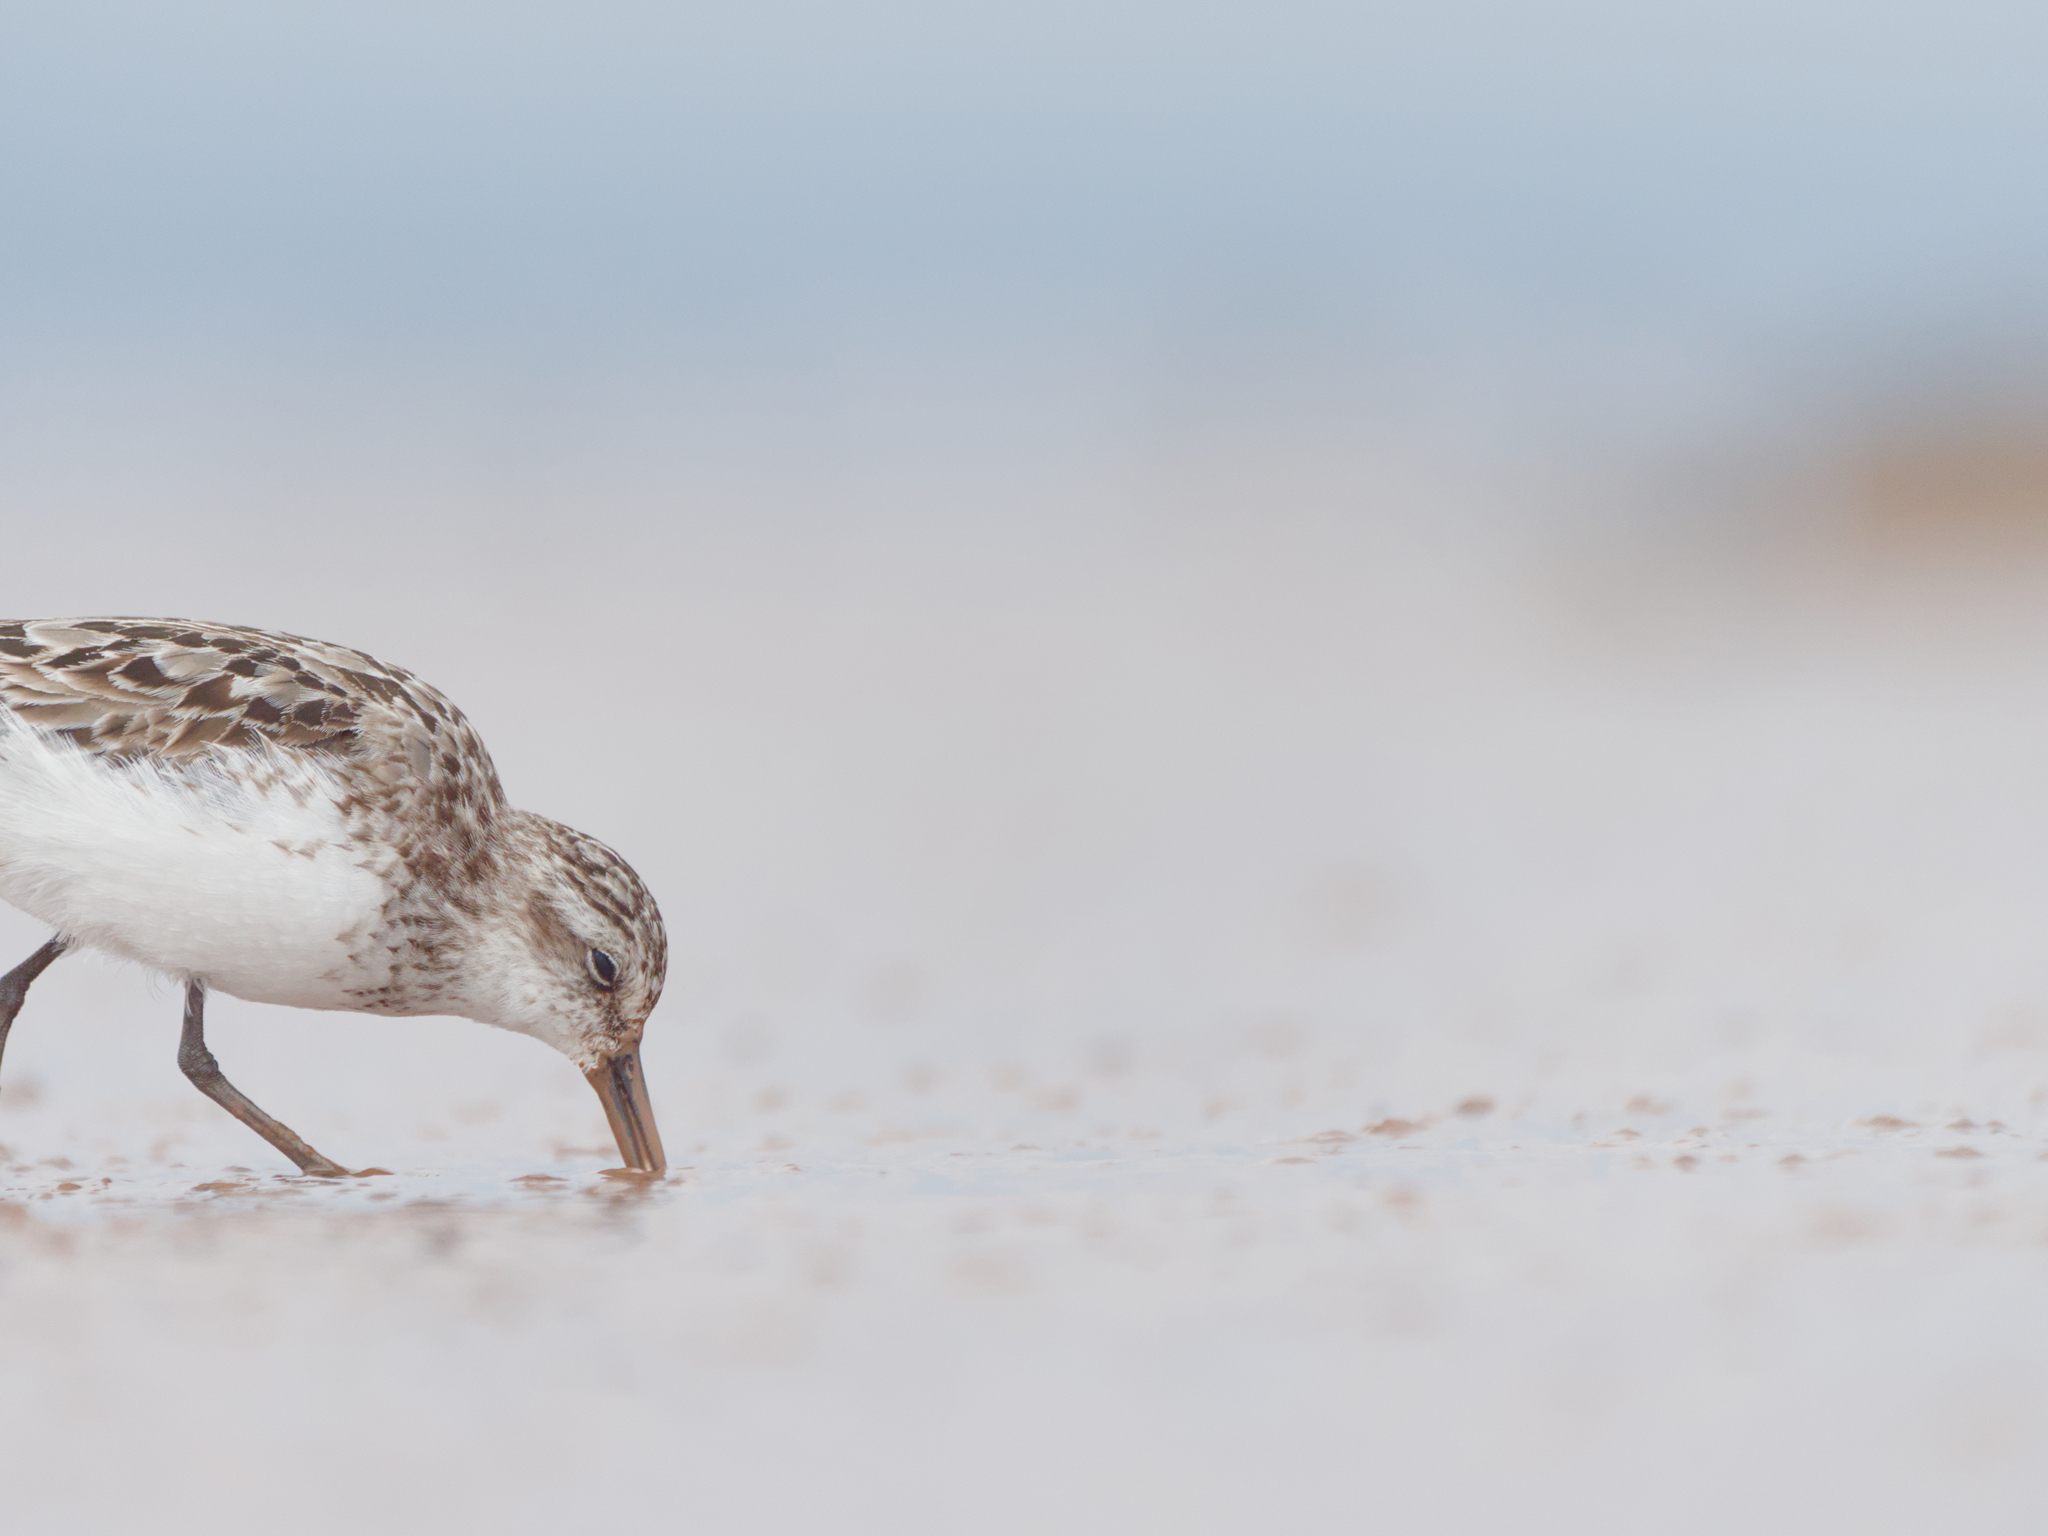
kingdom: Animalia
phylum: Chordata
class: Aves
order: Charadriiformes
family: Scolopacidae
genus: Calidris
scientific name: Calidris pusilla
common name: Semipalmated sandpiper
